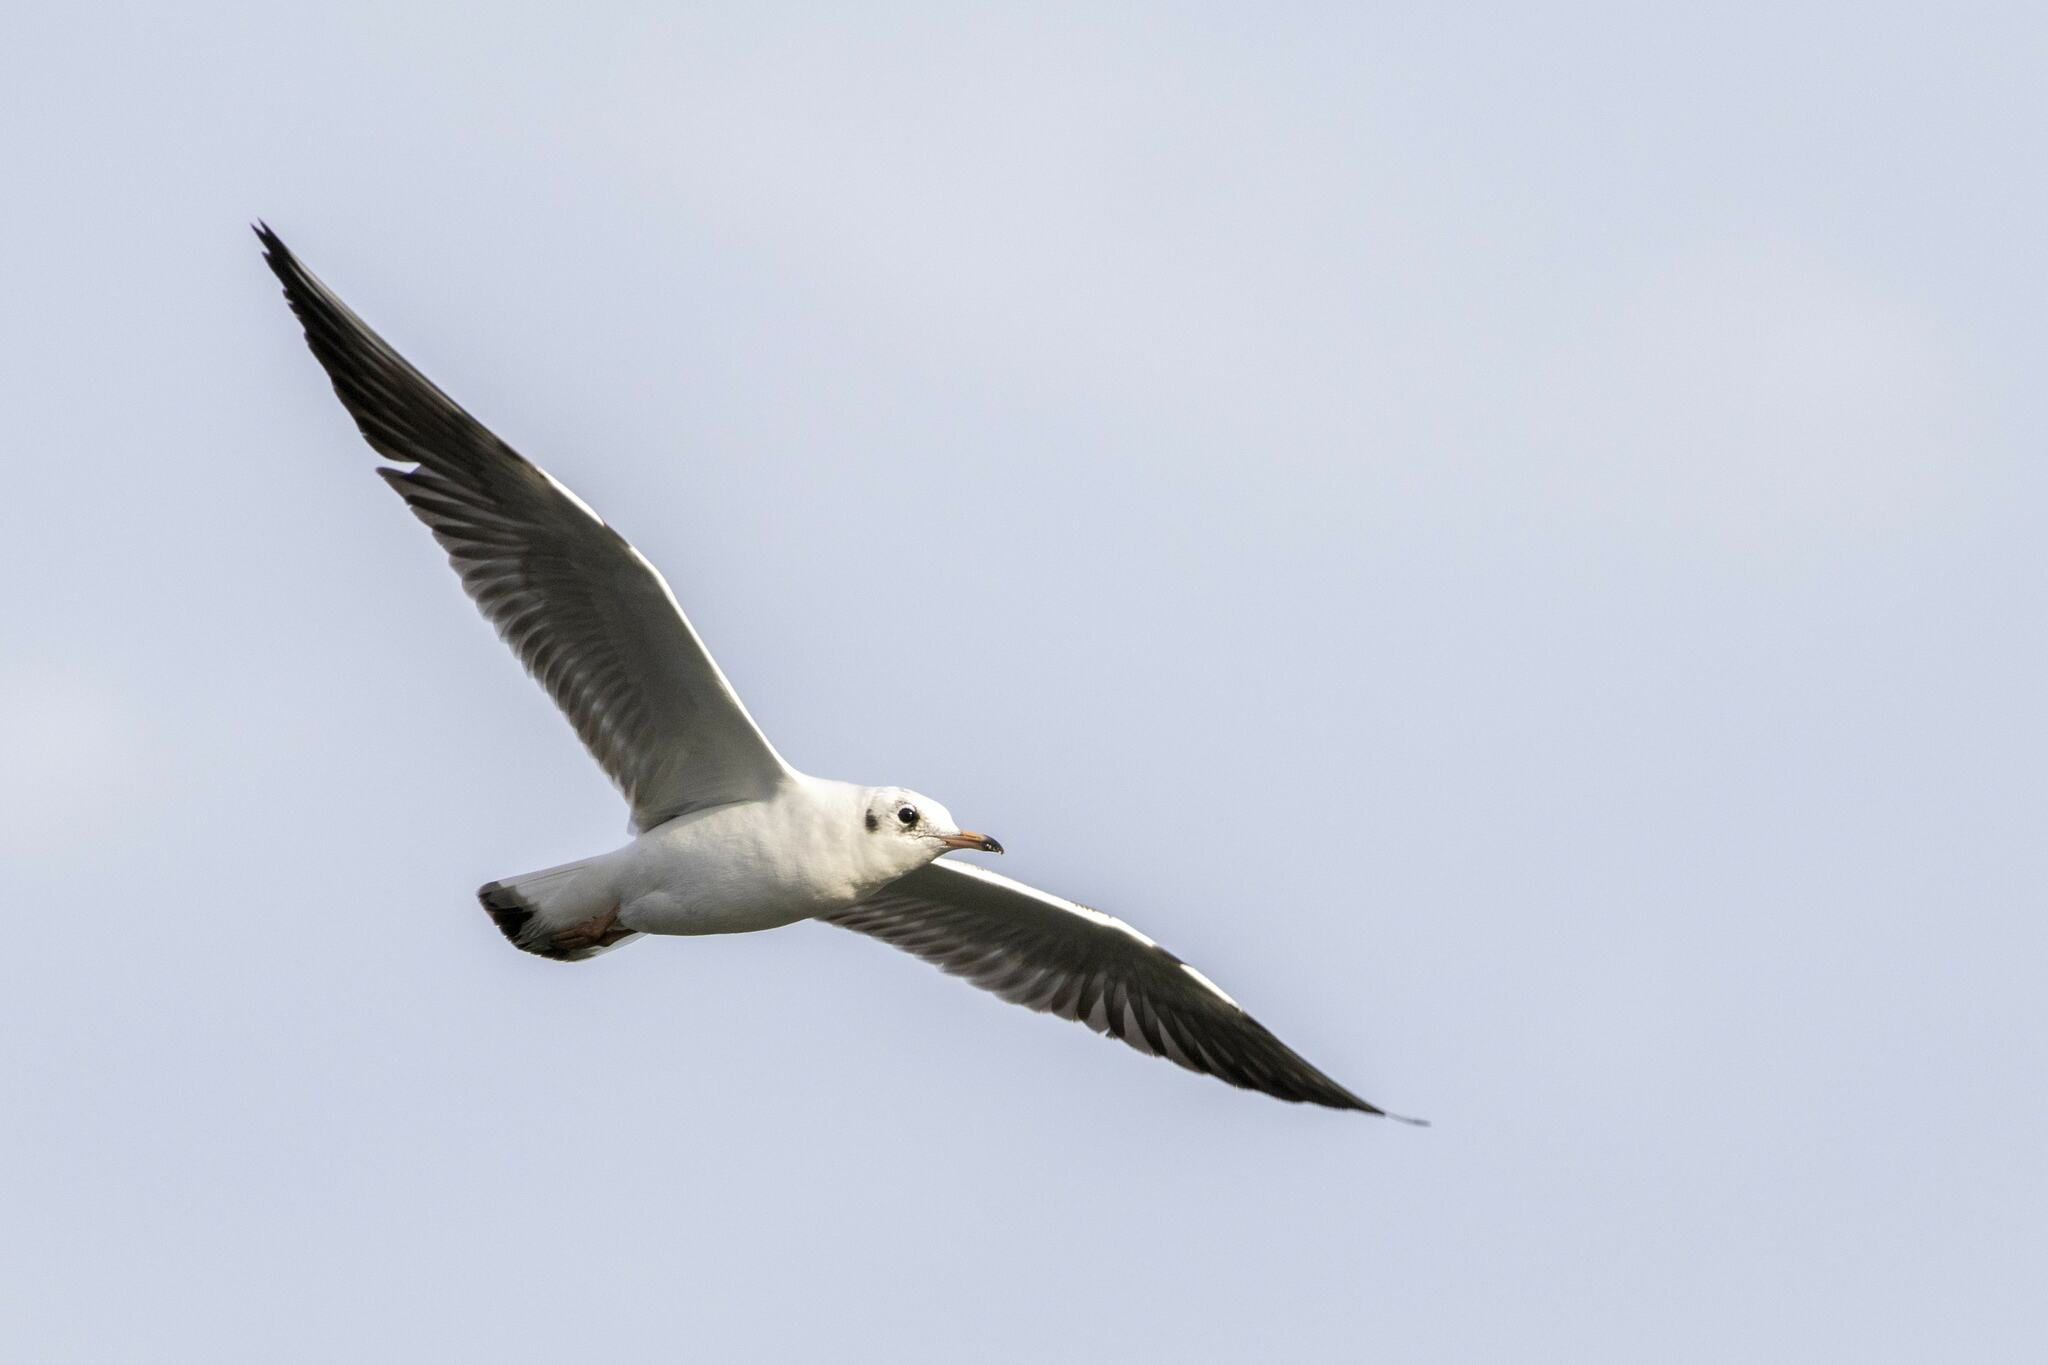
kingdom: Animalia
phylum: Chordata
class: Aves
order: Charadriiformes
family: Laridae
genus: Chroicocephalus
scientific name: Chroicocephalus ridibundus
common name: Black-headed gull
